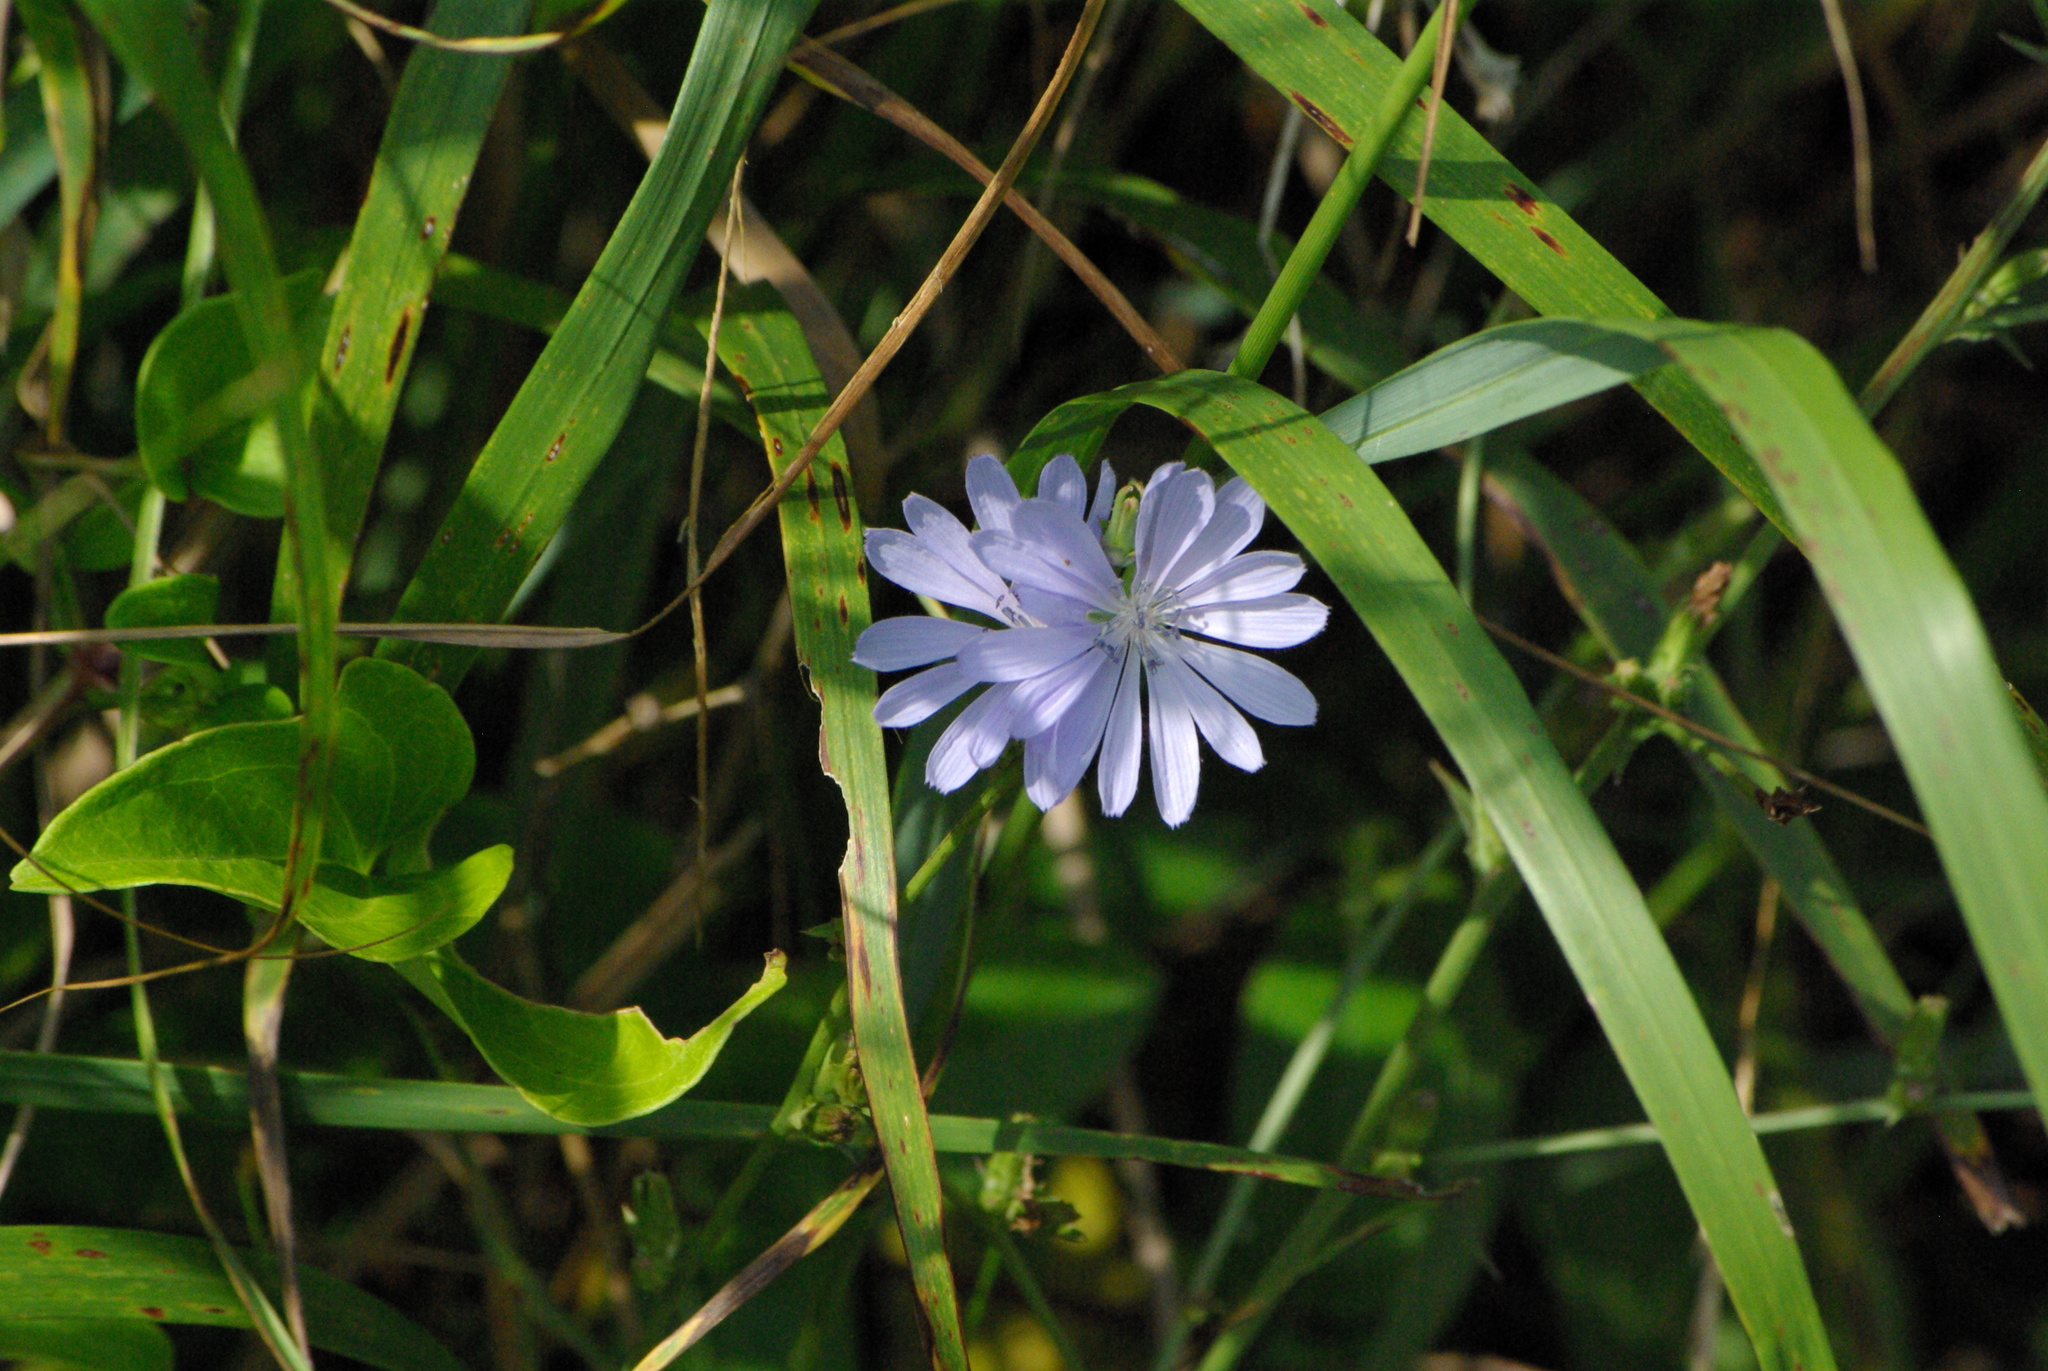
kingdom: Plantae
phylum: Tracheophyta
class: Magnoliopsida
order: Asterales
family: Asteraceae
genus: Cichorium
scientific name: Cichorium intybus
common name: Chicory
